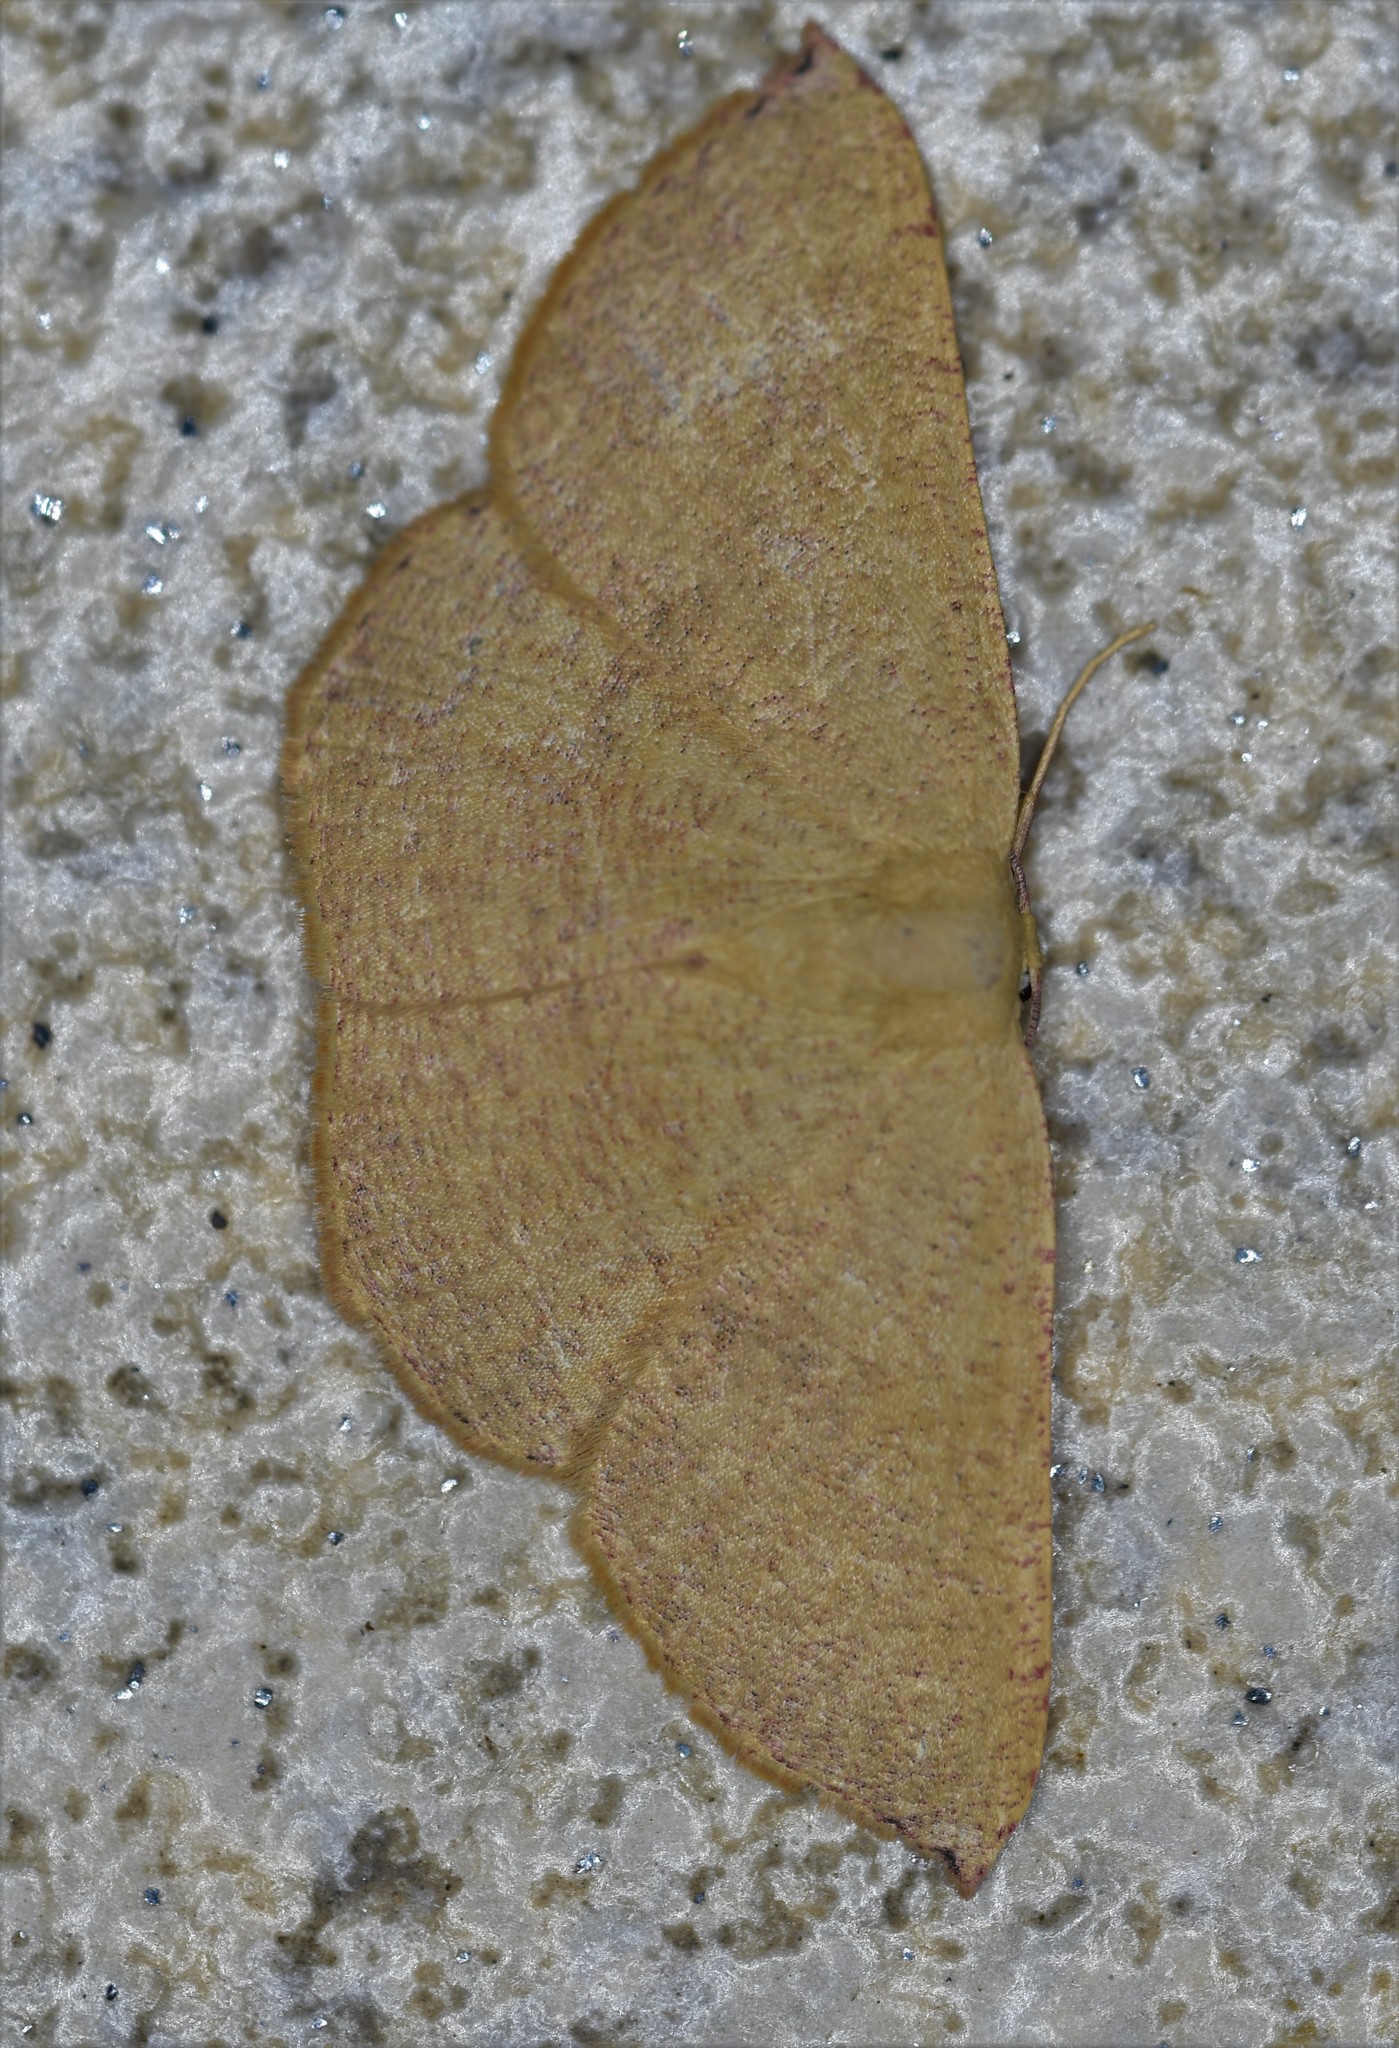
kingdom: Animalia
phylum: Arthropoda
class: Insecta
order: Lepidoptera
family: Geometridae
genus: Cyclophora
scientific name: Cyclophora puppillaria
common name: Blair's mocha
